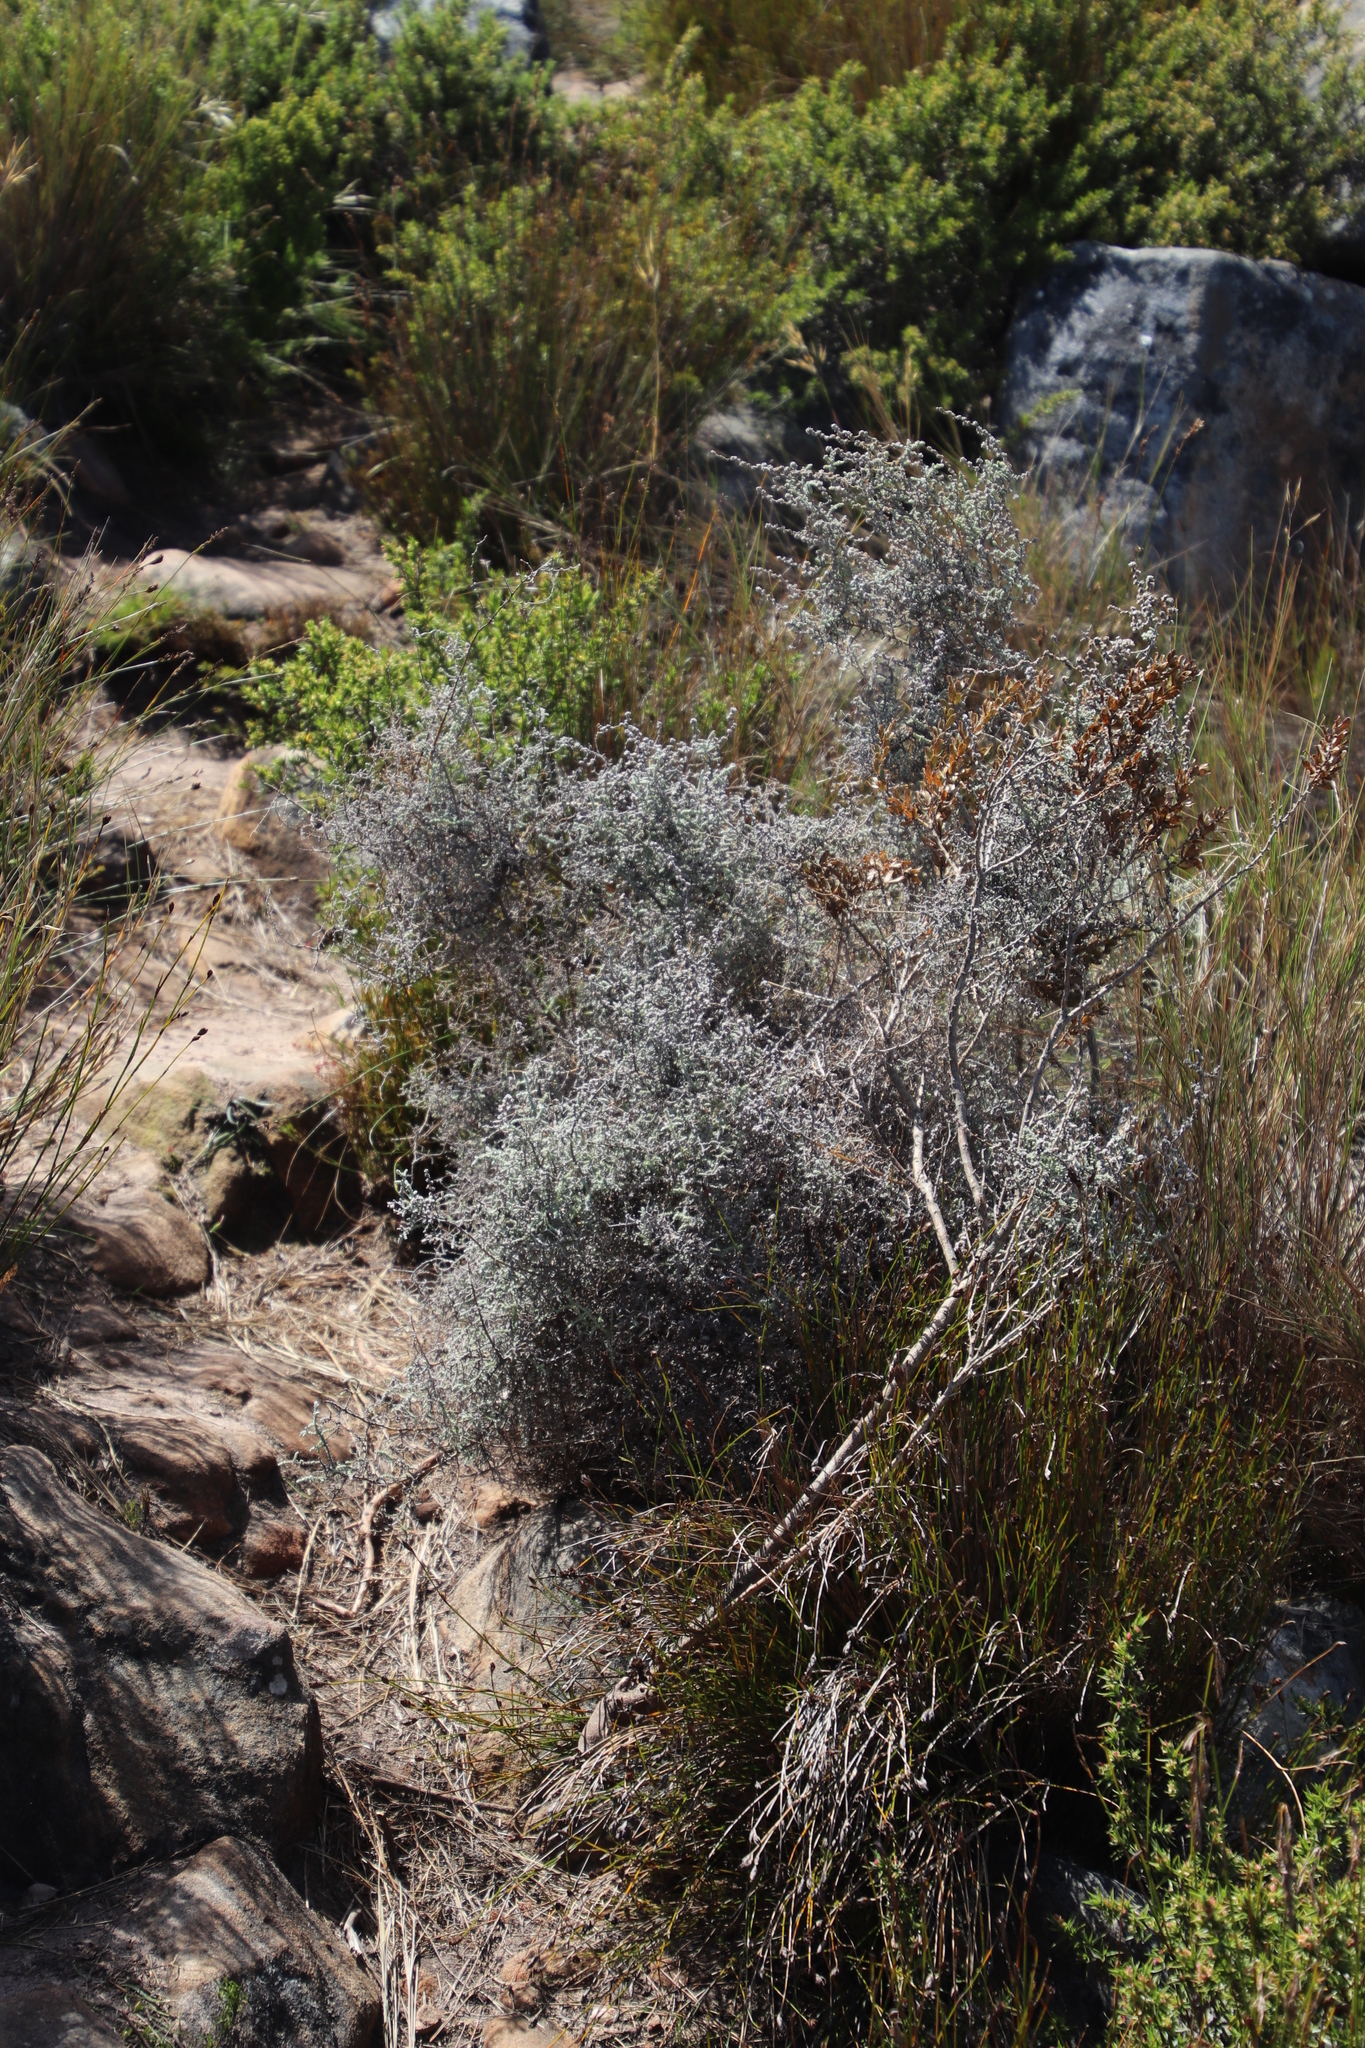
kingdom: Plantae
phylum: Tracheophyta
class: Magnoliopsida
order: Asterales
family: Asteraceae
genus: Seriphium
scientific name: Seriphium plumosum
